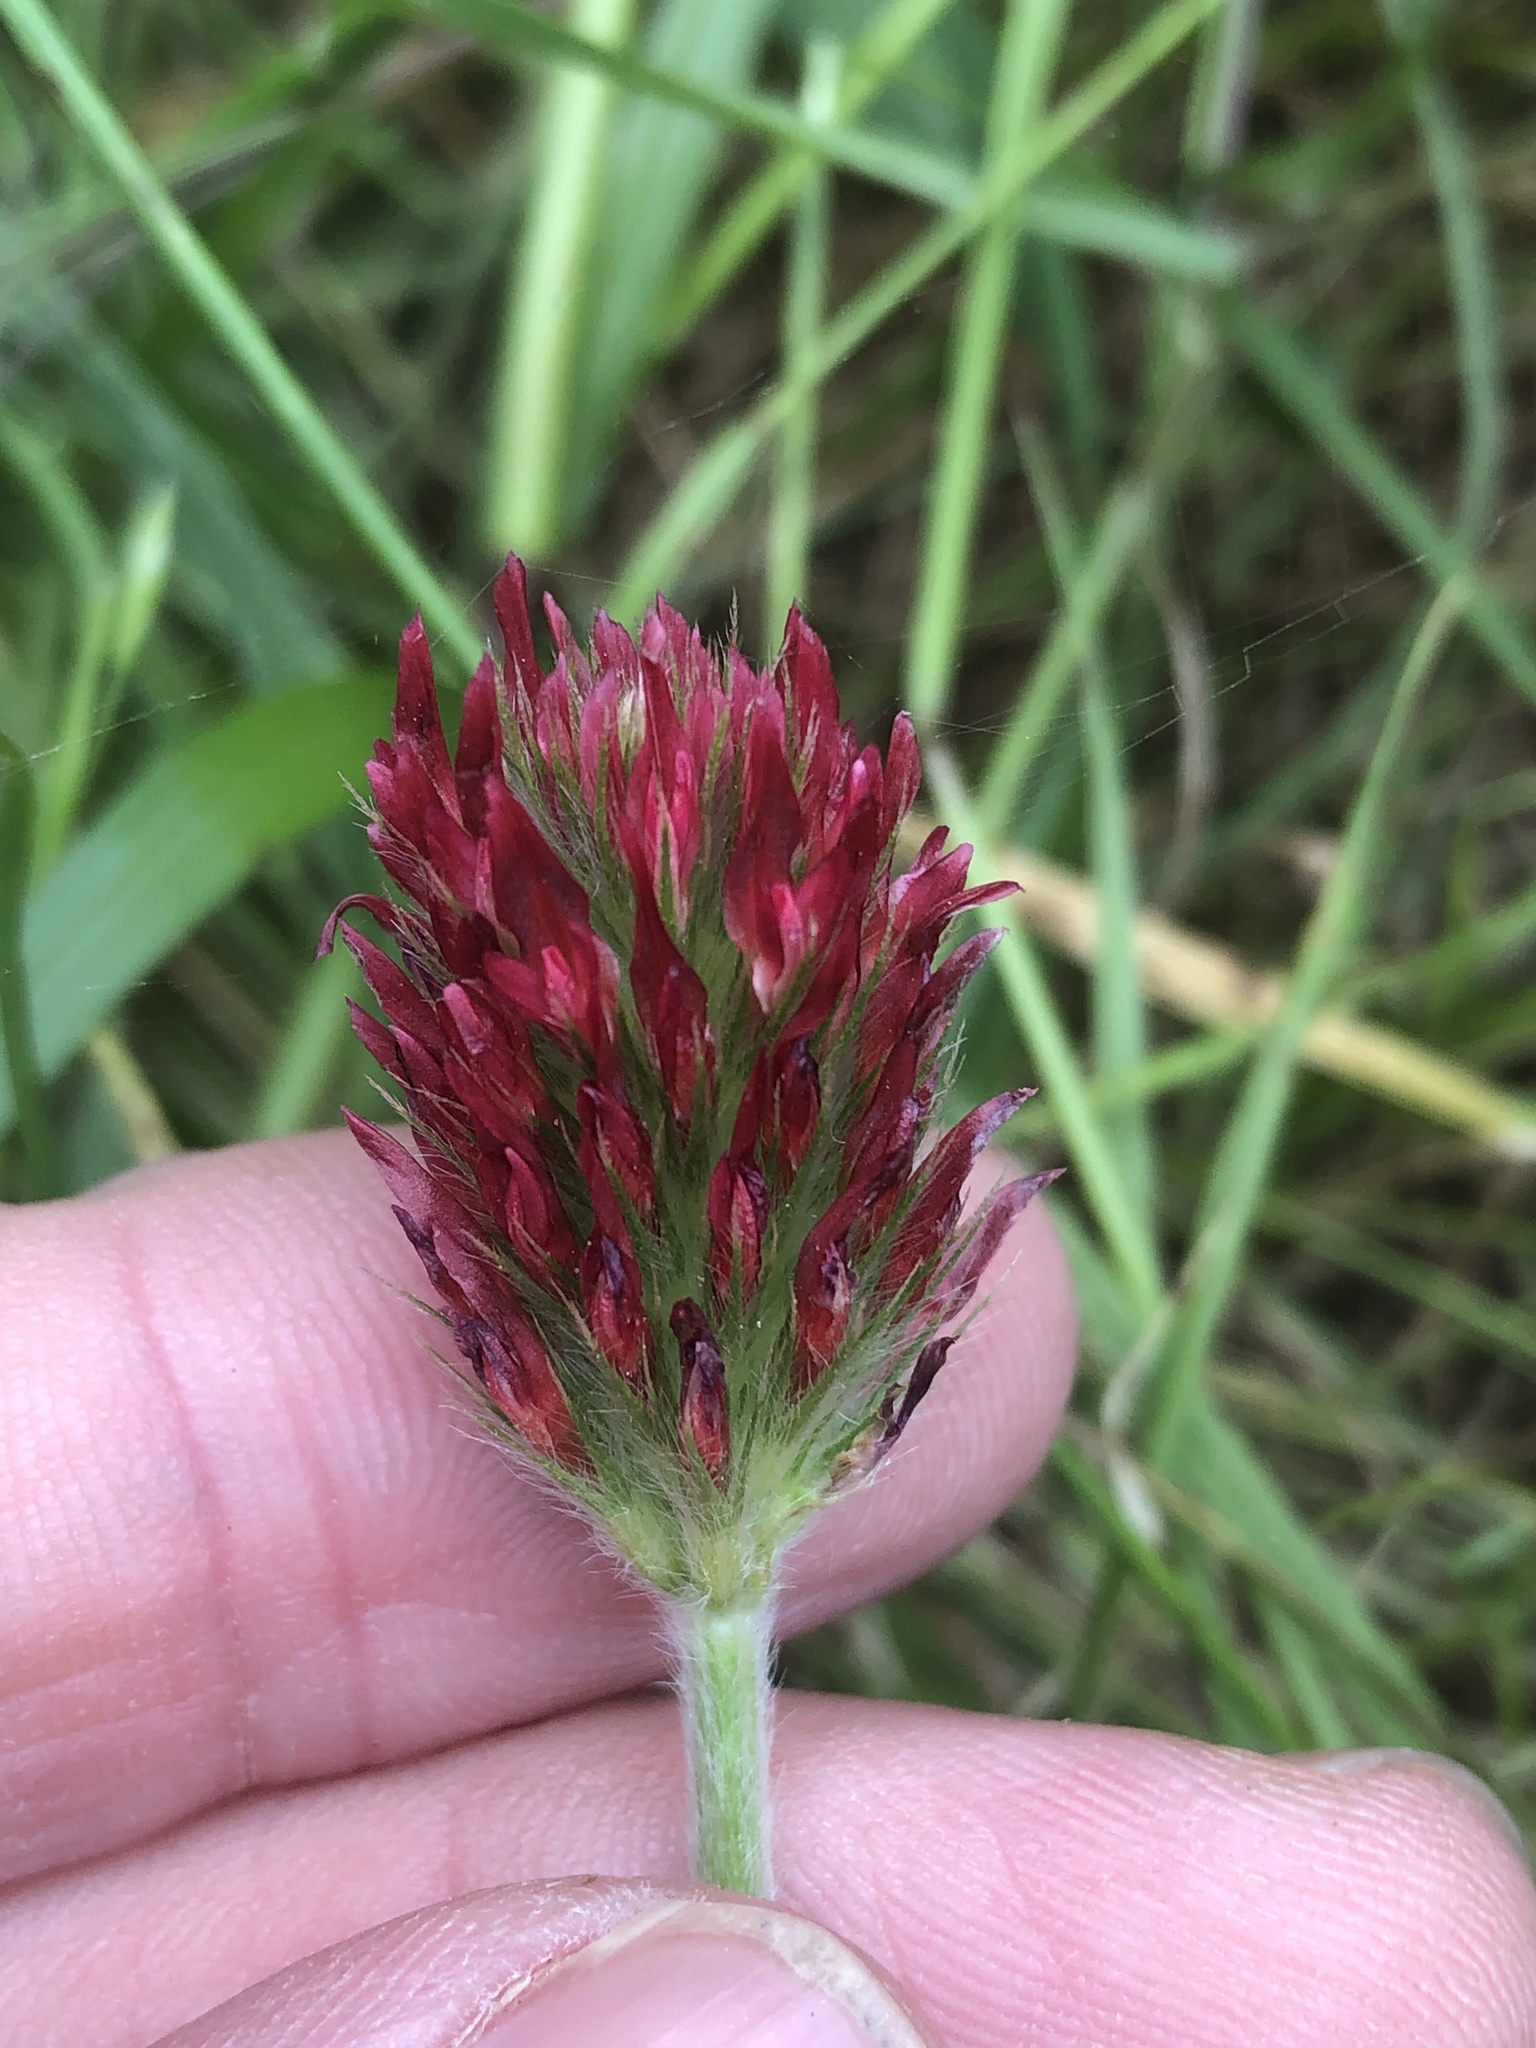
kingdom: Plantae
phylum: Tracheophyta
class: Magnoliopsida
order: Fabales
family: Fabaceae
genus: Trifolium
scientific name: Trifolium incarnatum
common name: Crimson clover
